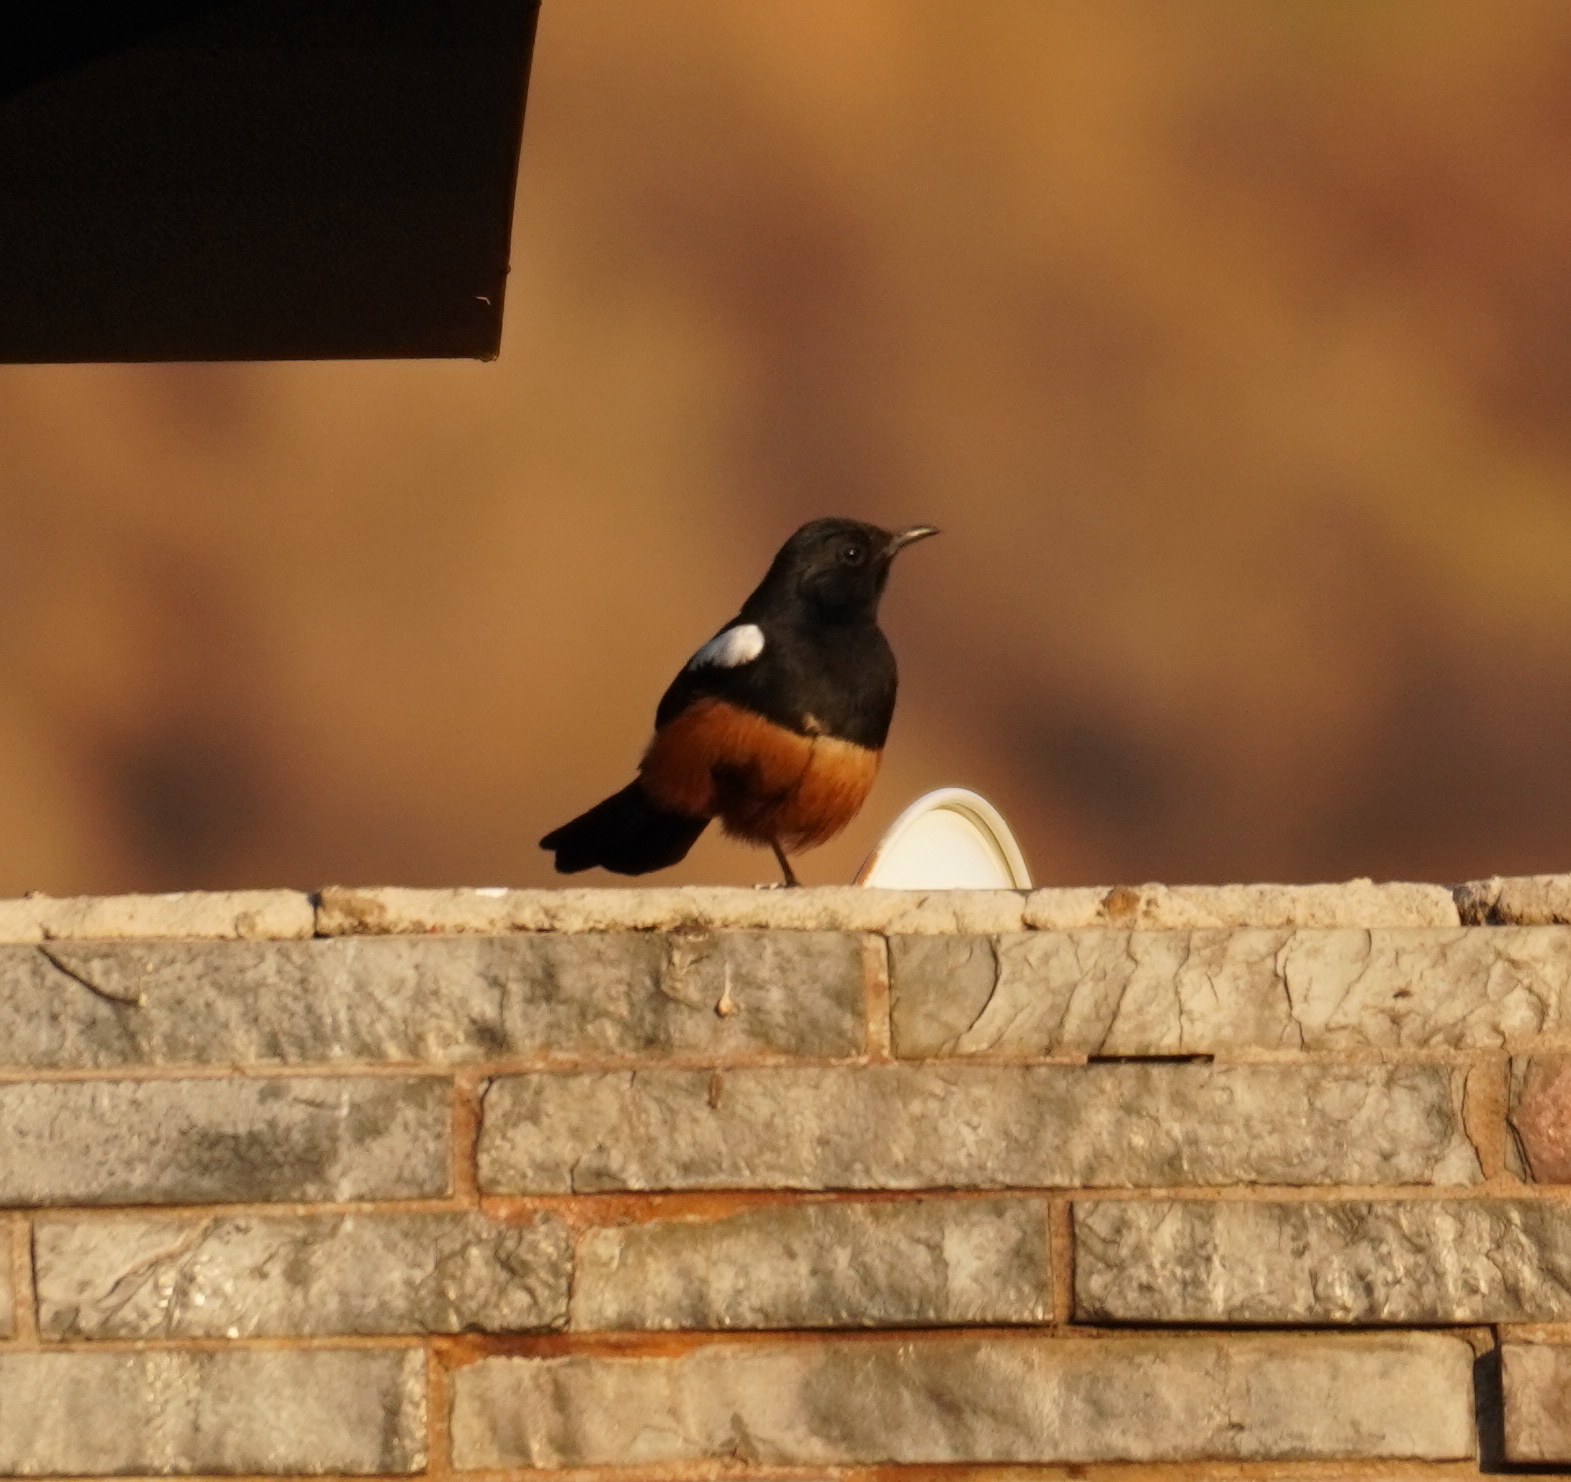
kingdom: Animalia
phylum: Chordata
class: Aves
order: Passeriformes
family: Muscicapidae
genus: Thamnolaea
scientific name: Thamnolaea cinnamomeiventris
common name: Mocking cliff chat
